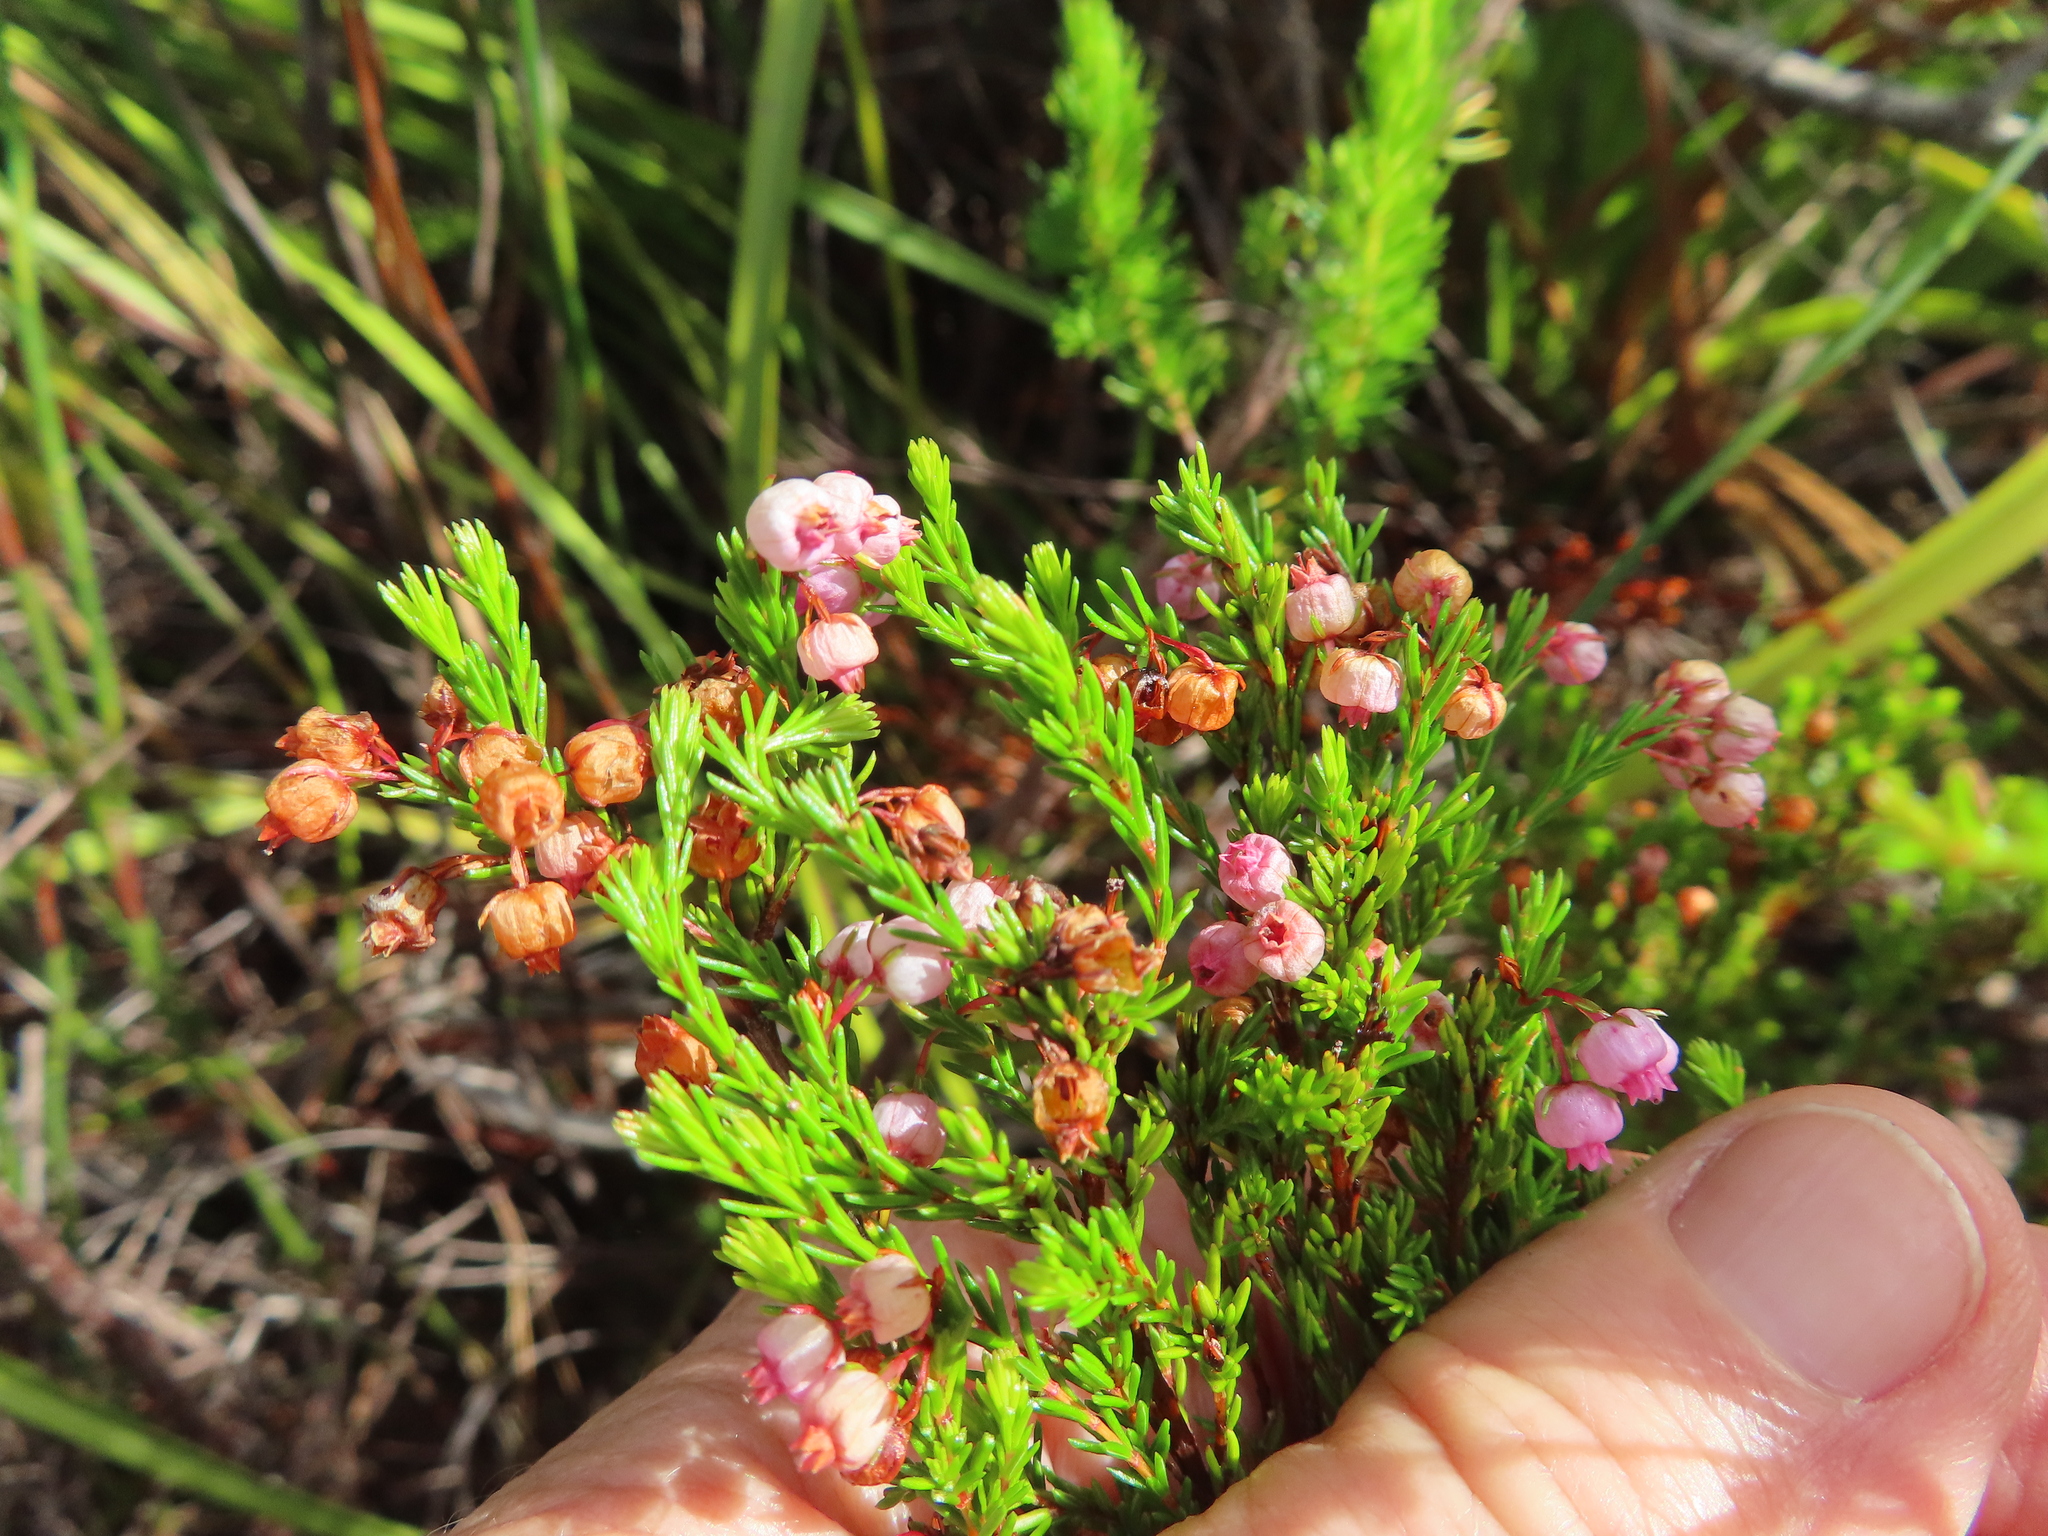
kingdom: Plantae
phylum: Tracheophyta
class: Magnoliopsida
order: Ericales
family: Ericaceae
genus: Erica
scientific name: Erica laeta
